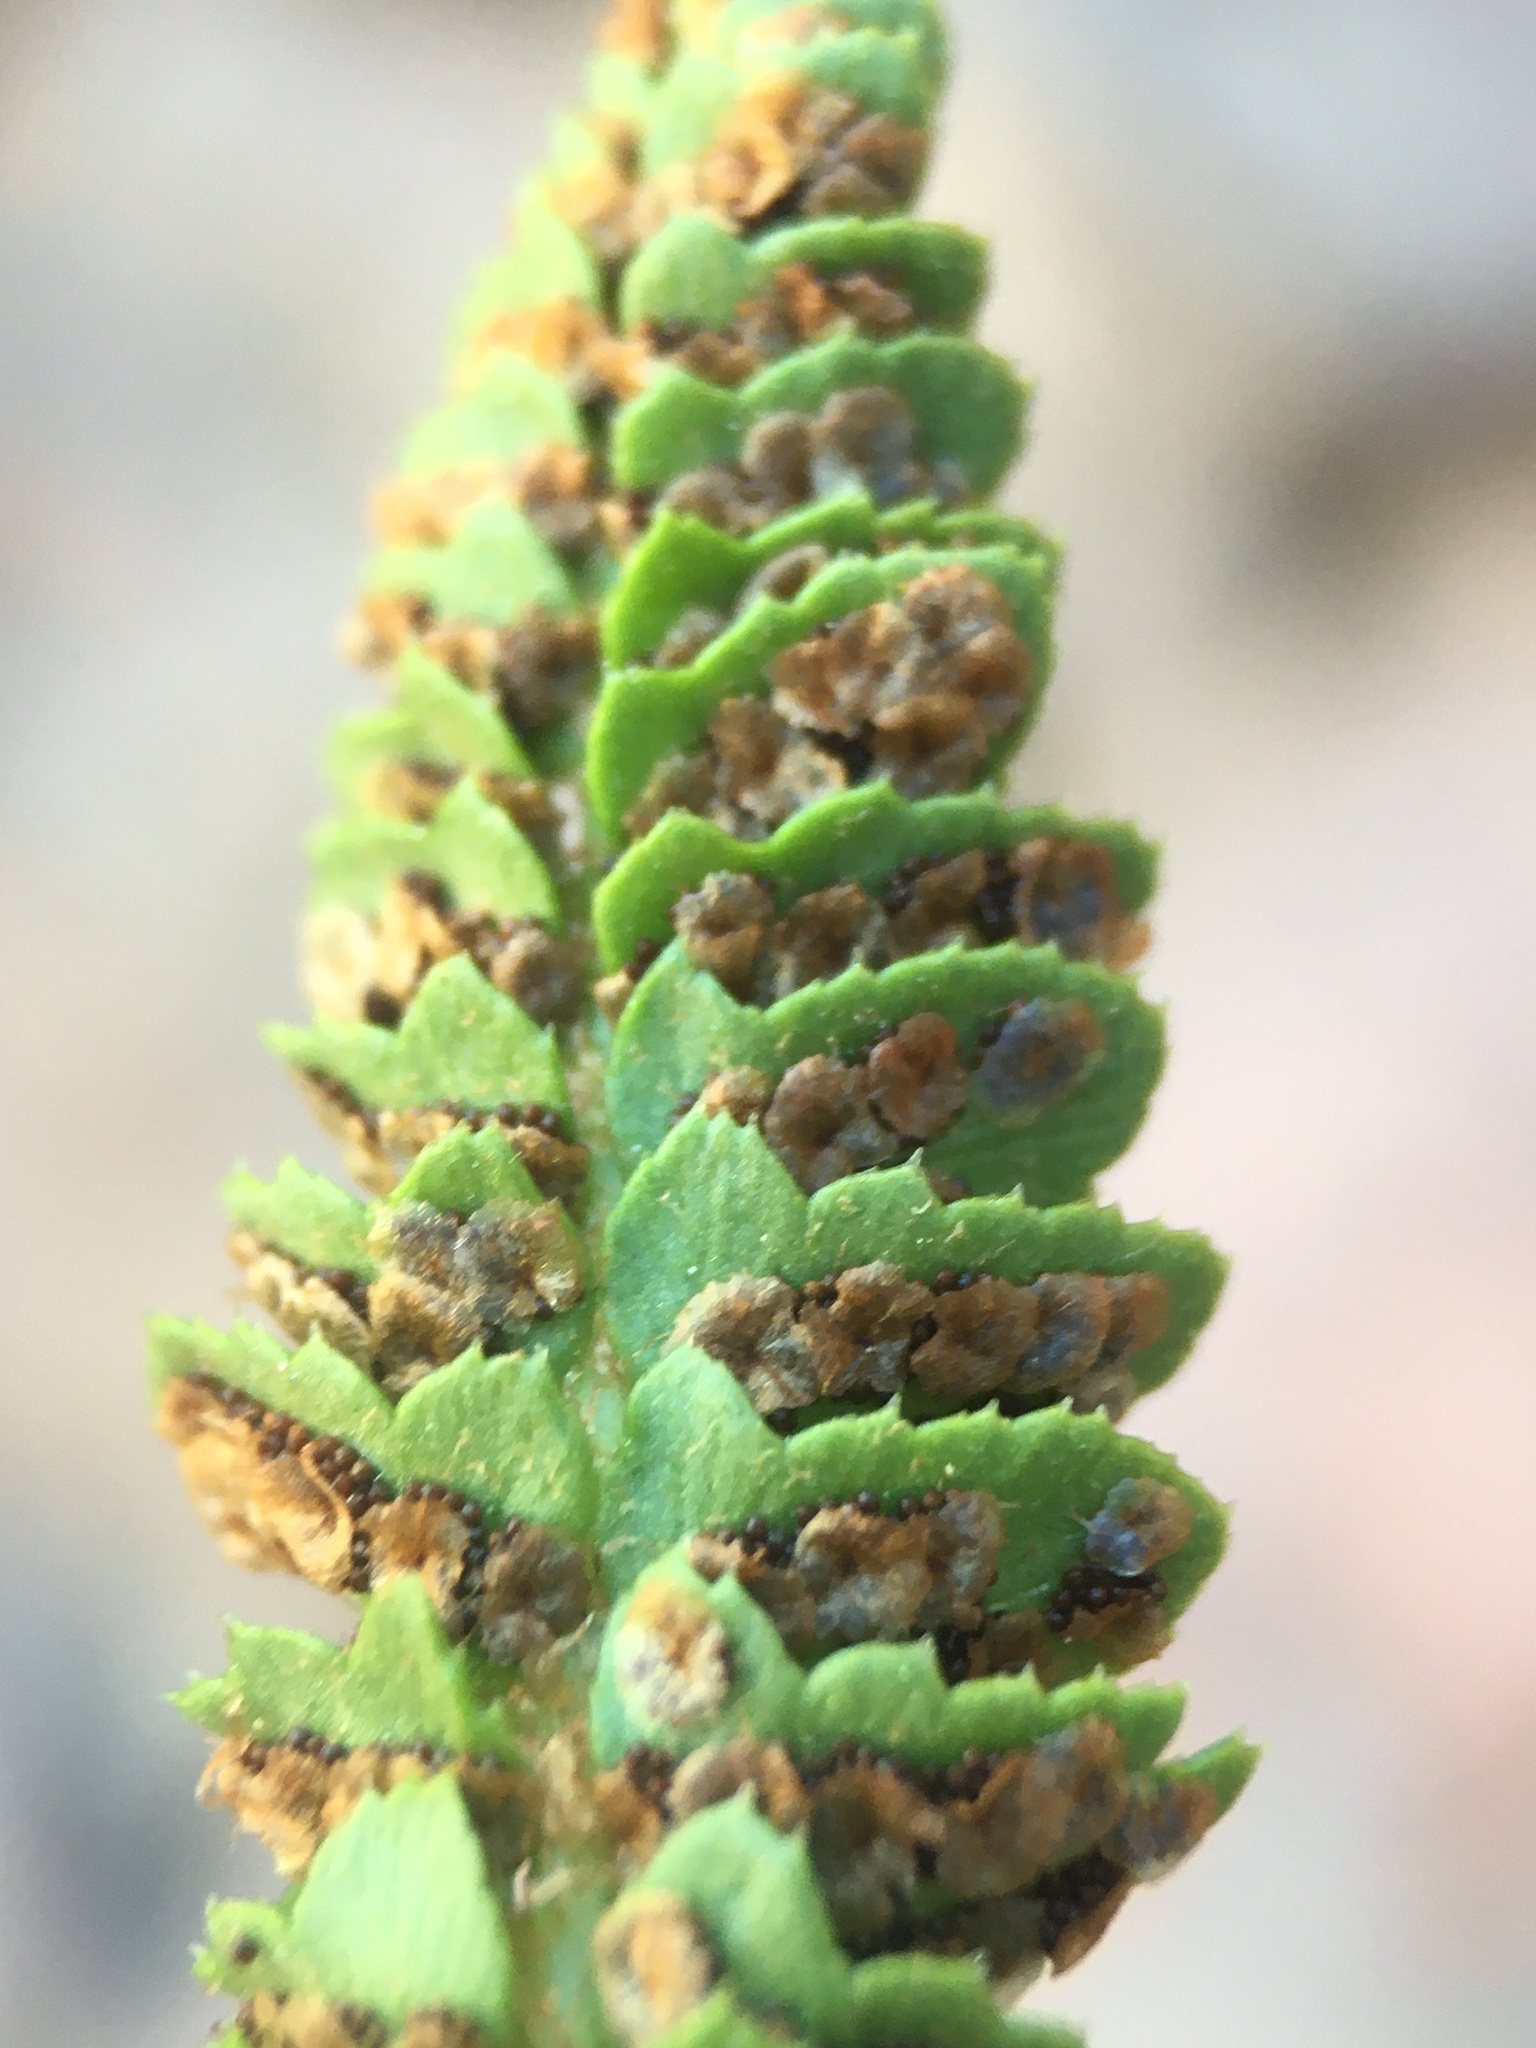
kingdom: Plantae
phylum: Tracheophyta
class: Polypodiopsida
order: Polypodiales
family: Dryopteridaceae
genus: Polystichum
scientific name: Polystichum kruckebergii
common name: Kruckeberg's holly fern
